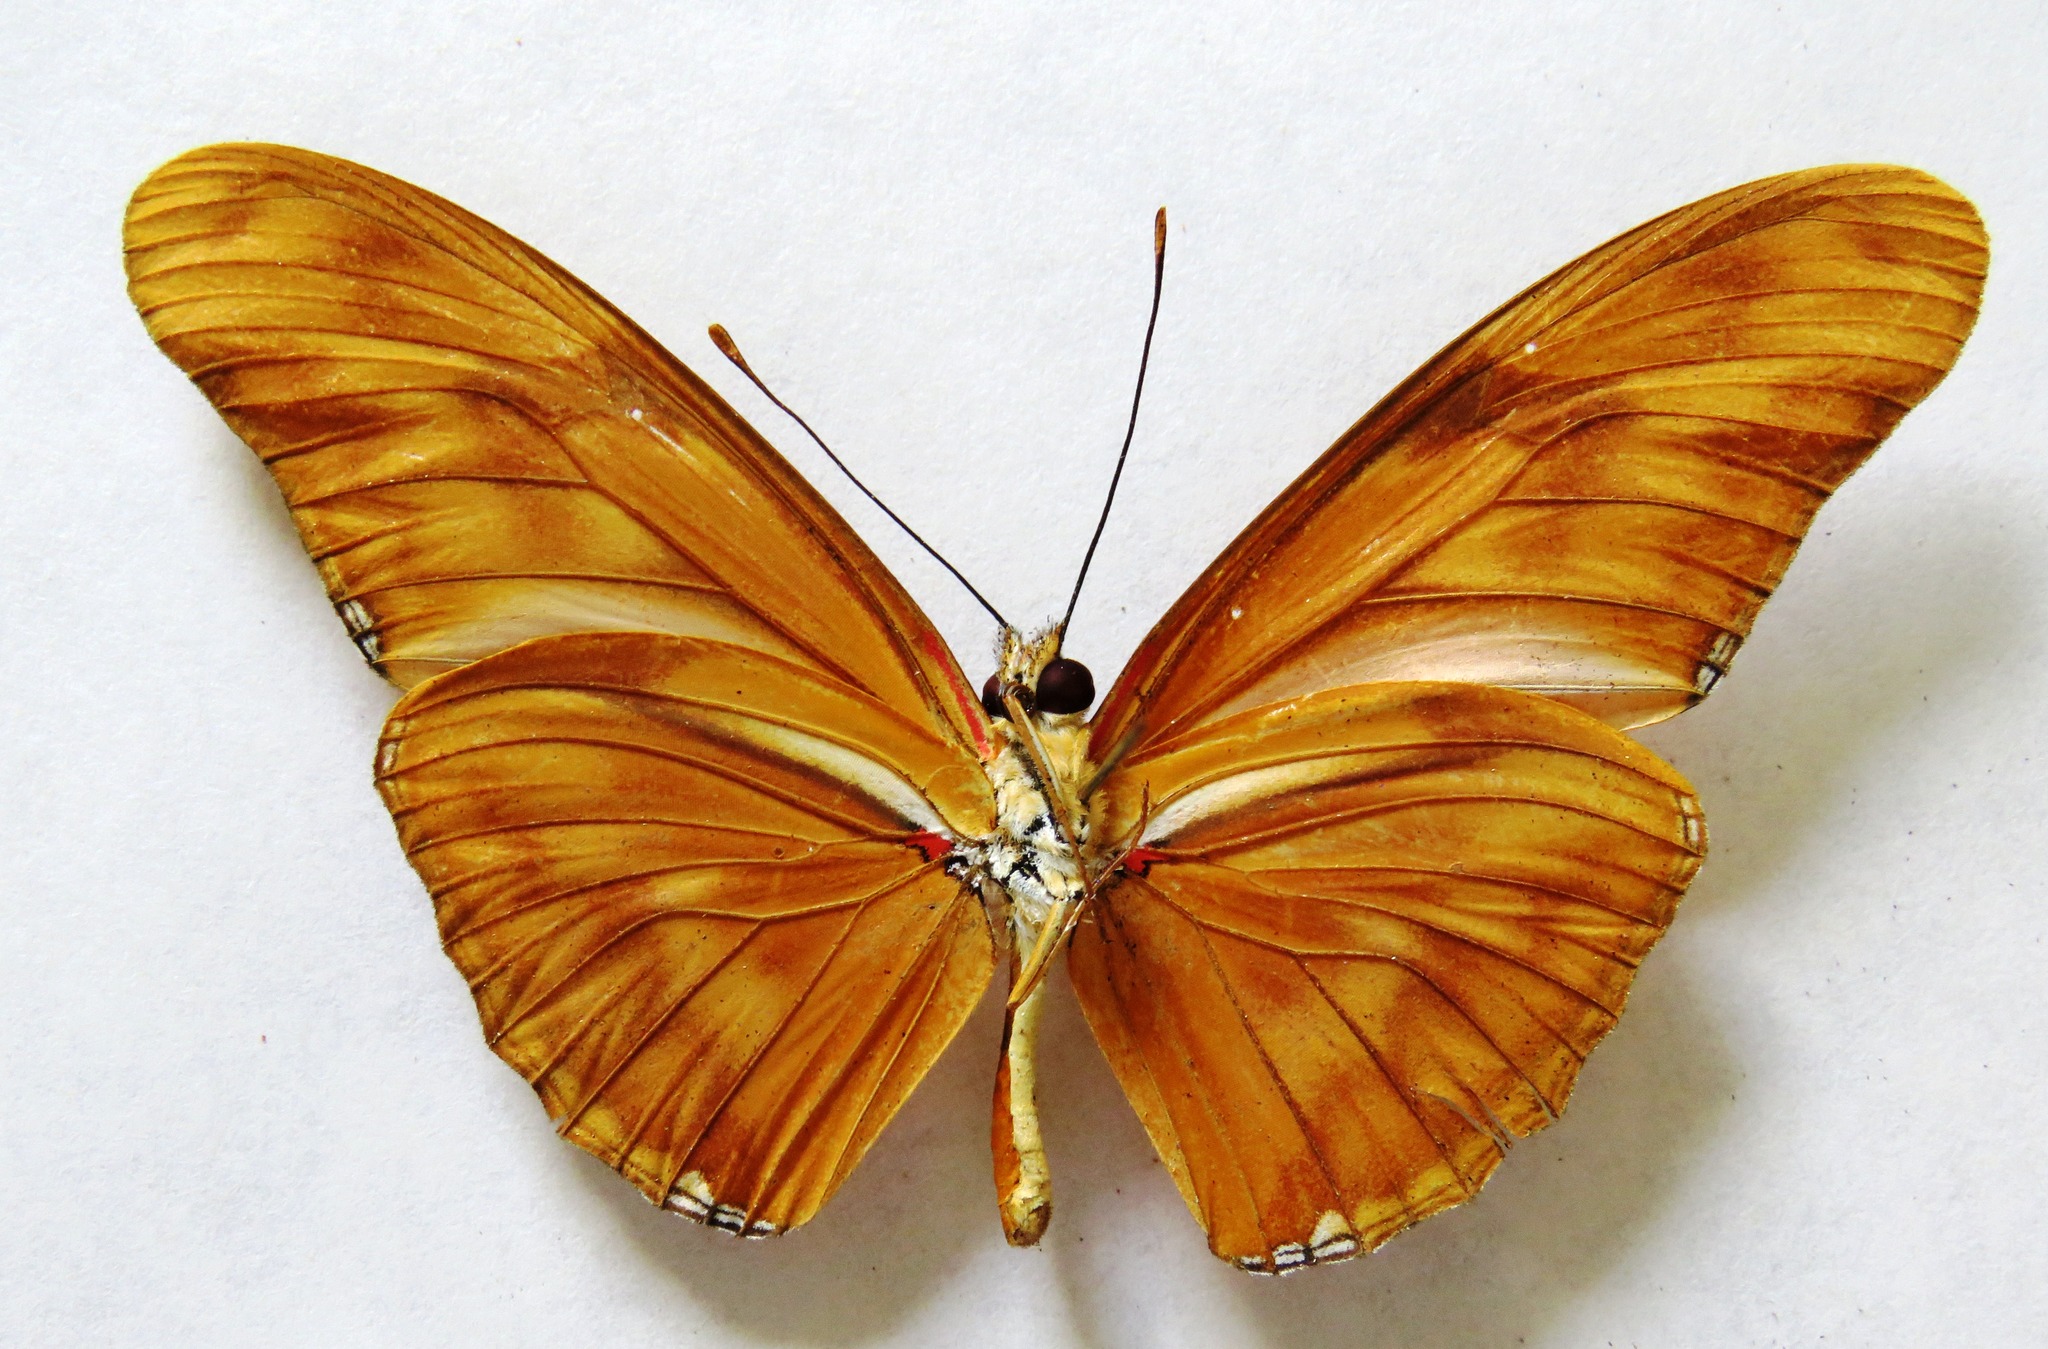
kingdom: Animalia
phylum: Arthropoda
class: Insecta
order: Lepidoptera
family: Nymphalidae
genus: Dryas
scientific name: Dryas iulia
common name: Flambeau
